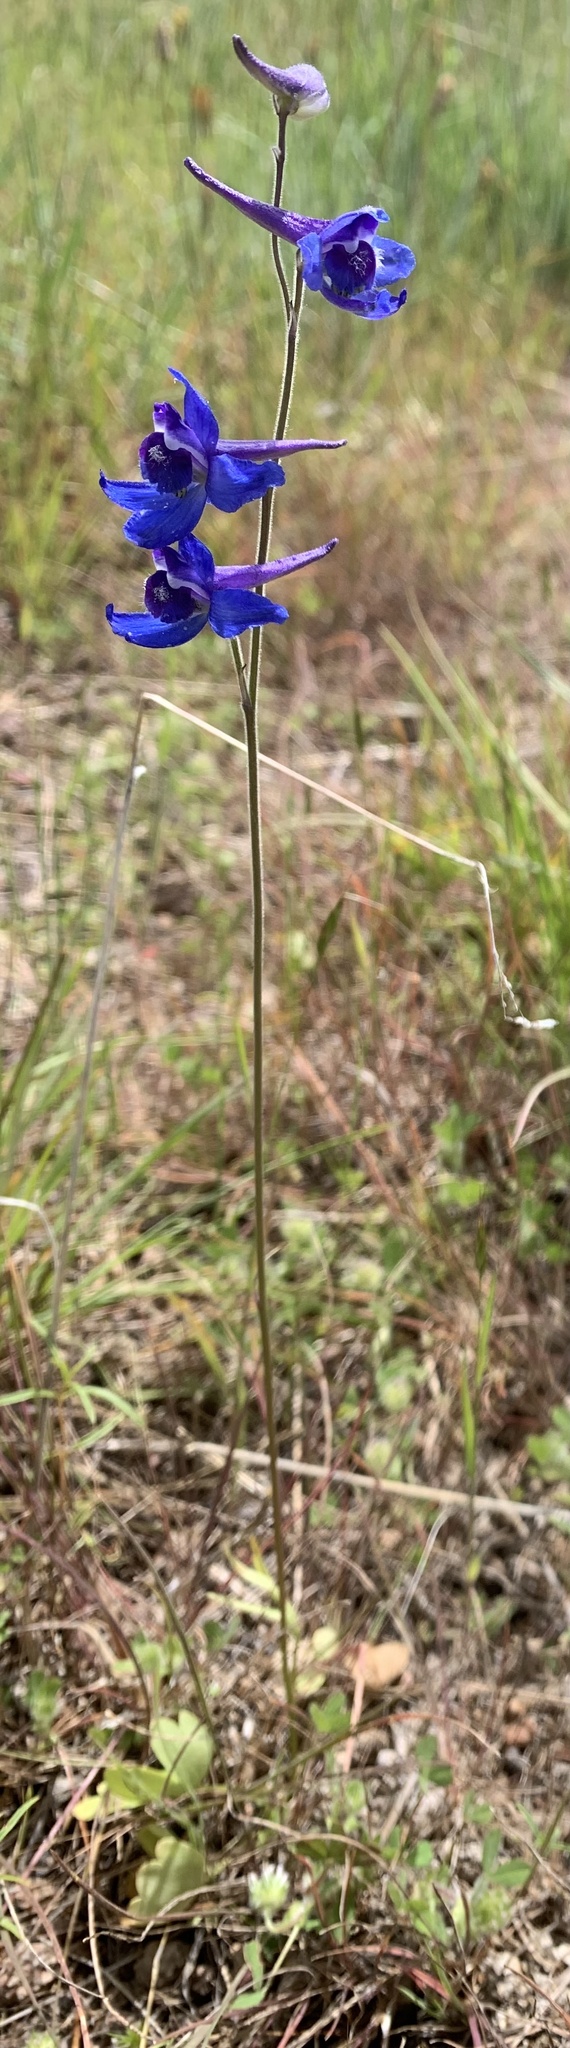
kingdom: Plantae
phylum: Tracheophyta
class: Magnoliopsida
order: Ranunculales
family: Ranunculaceae
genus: Delphinium
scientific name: Delphinium depauperatum
